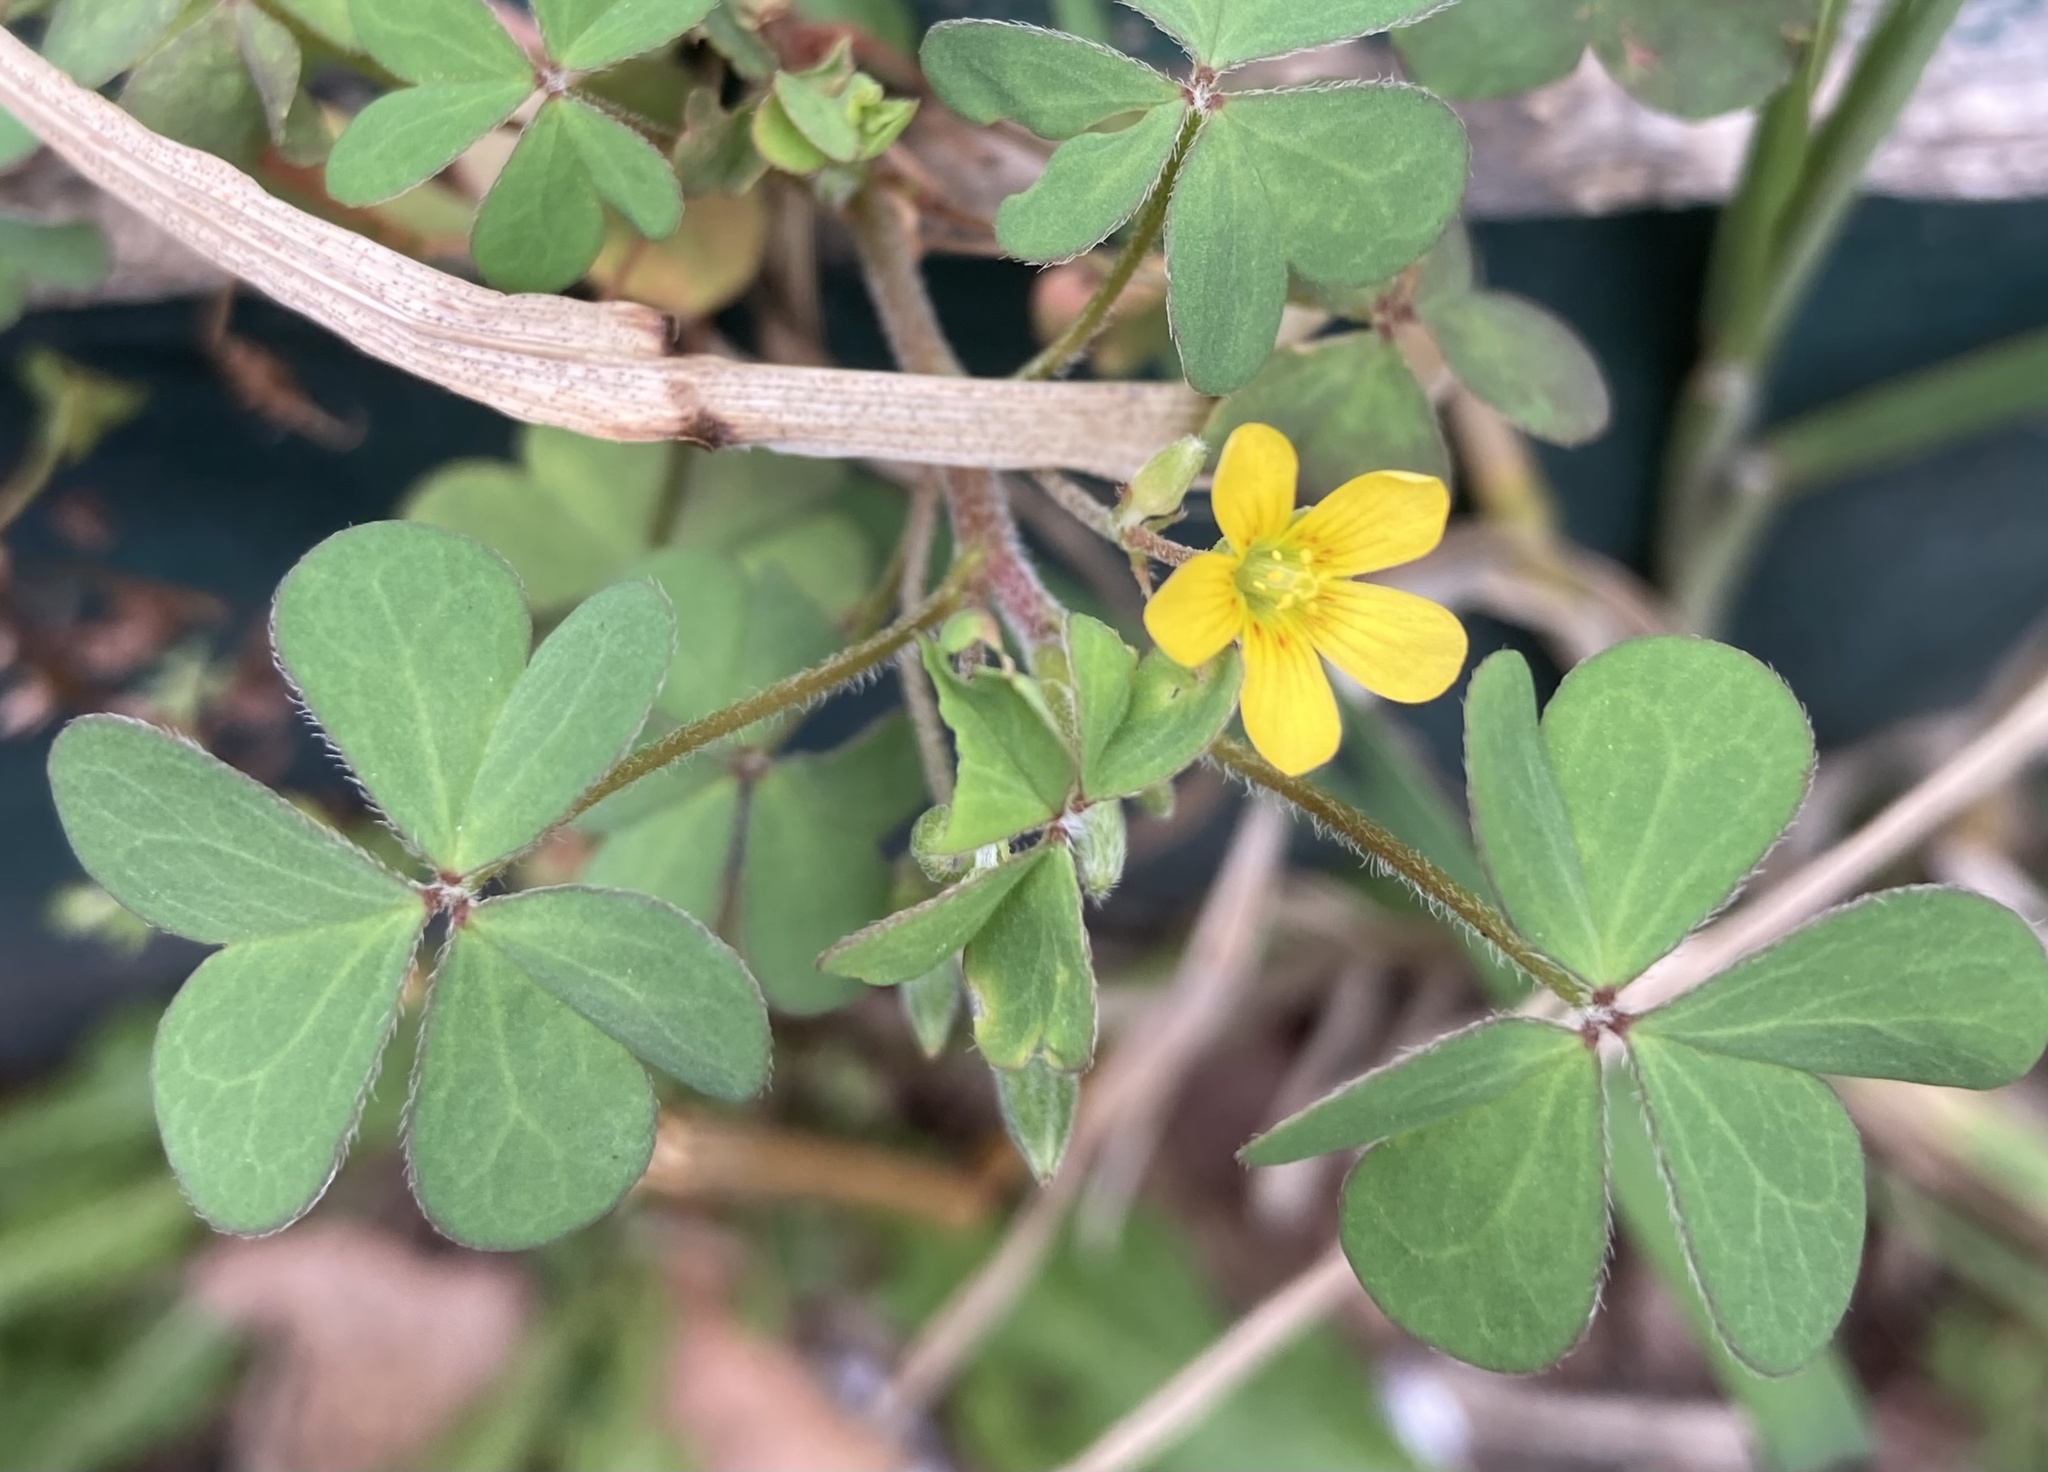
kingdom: Plantae
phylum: Tracheophyta
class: Magnoliopsida
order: Oxalidales
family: Oxalidaceae
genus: Oxalis
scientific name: Oxalis corniculata
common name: Procumbent yellow-sorrel
